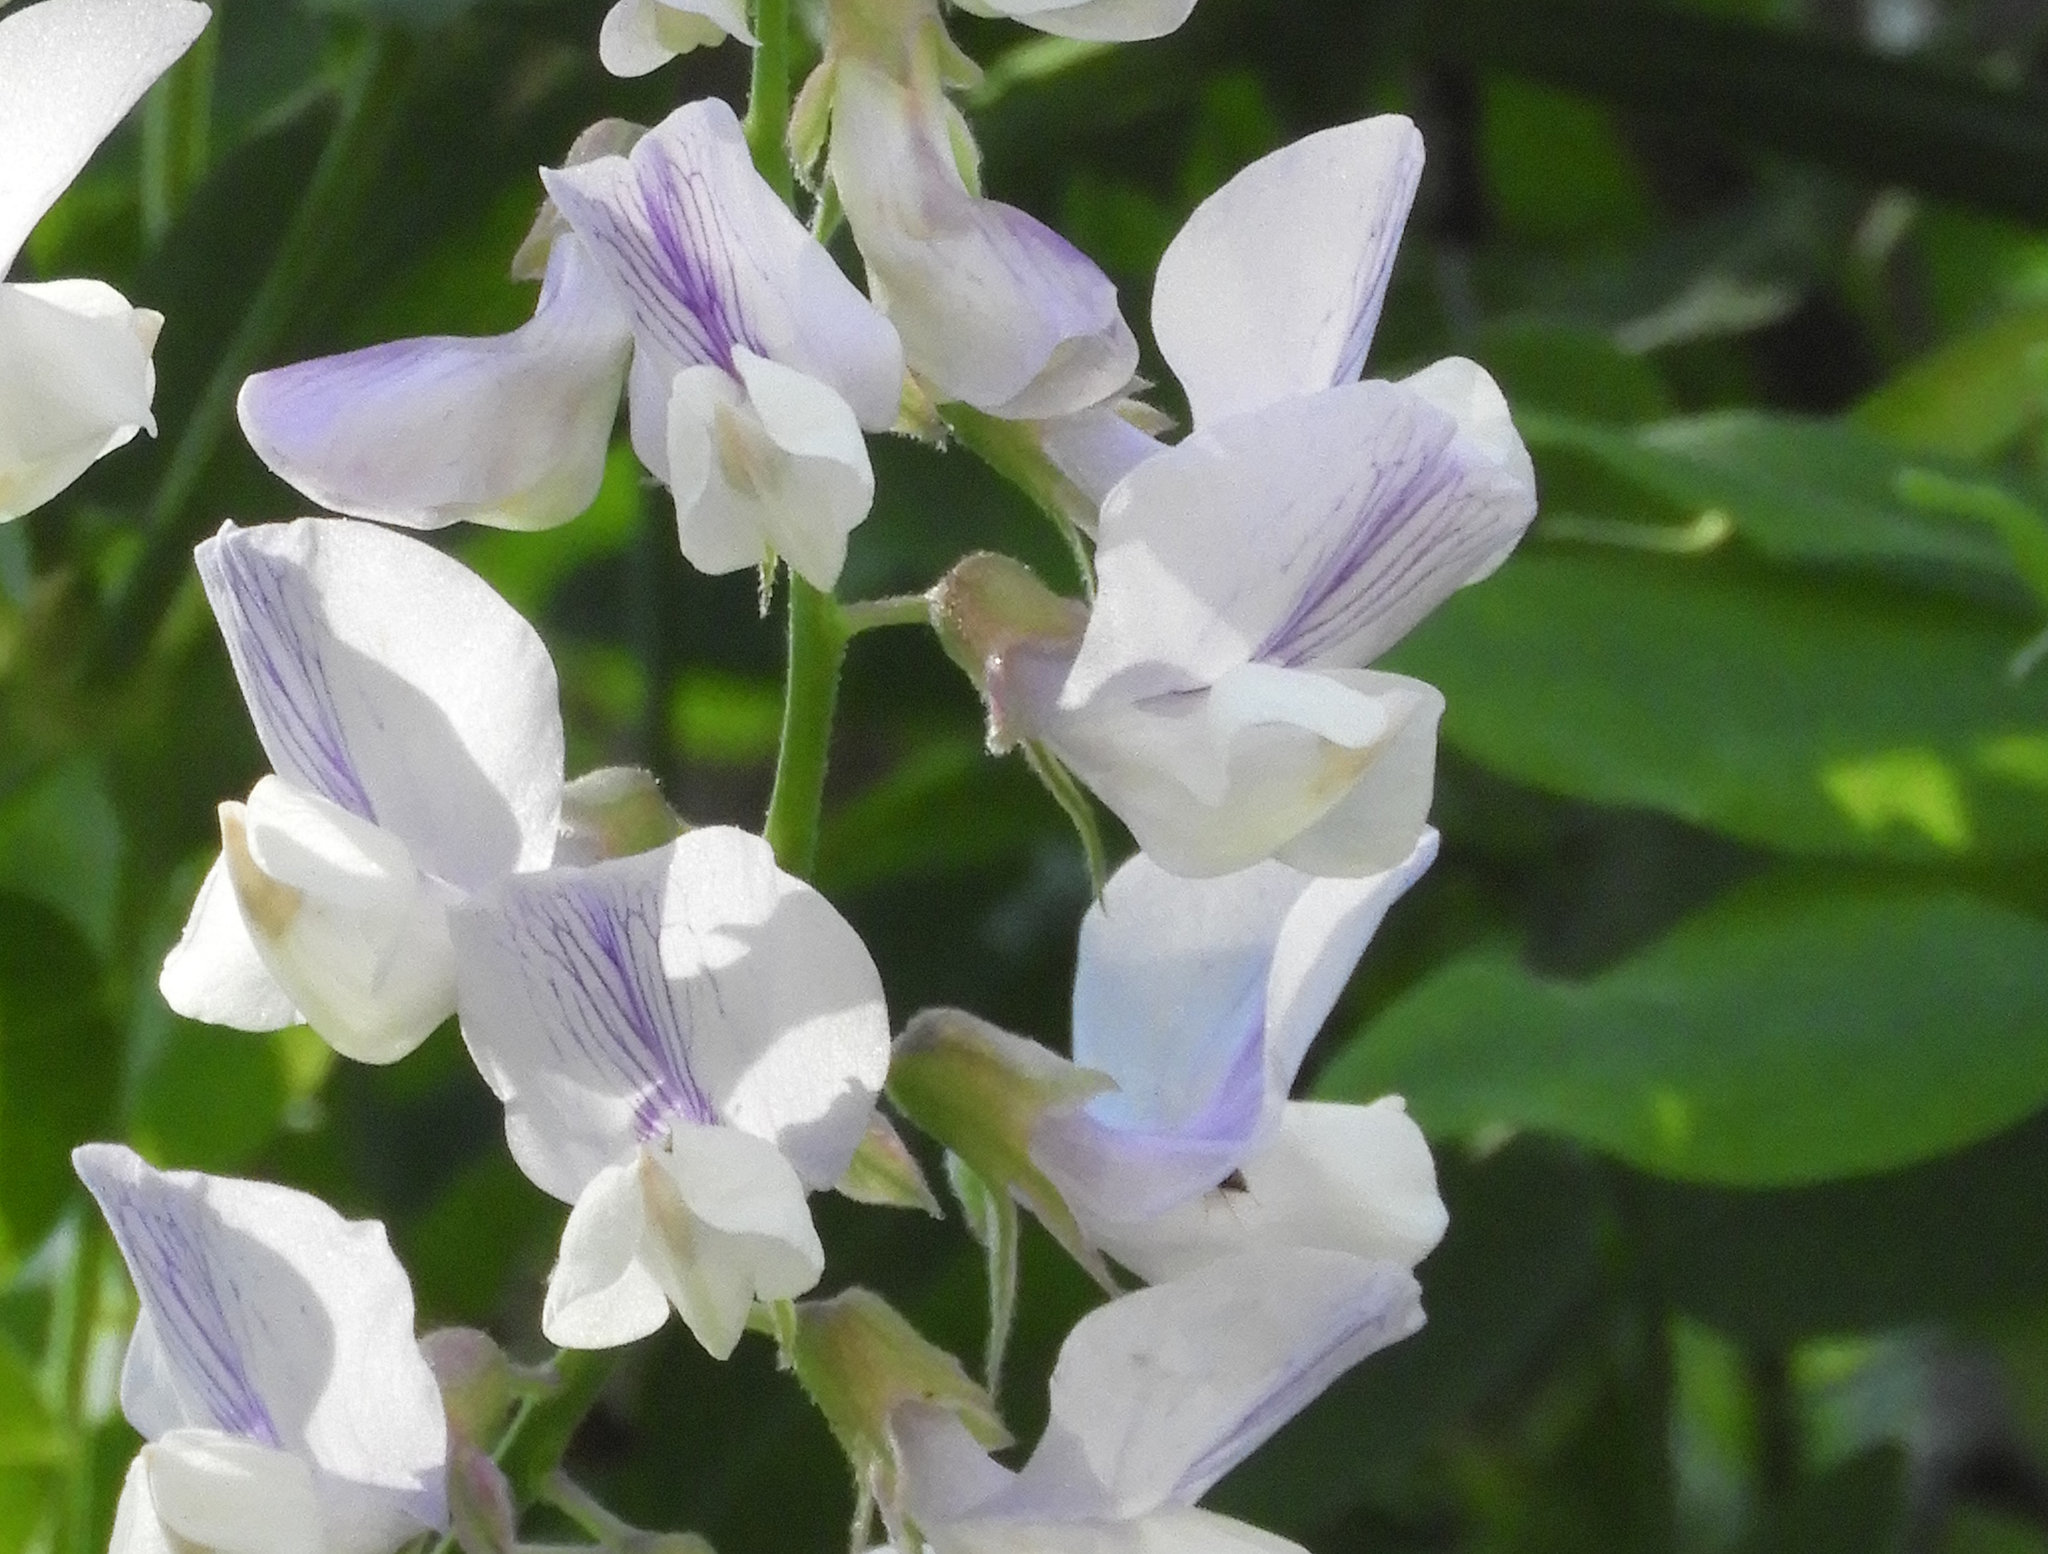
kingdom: Plantae
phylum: Tracheophyta
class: Magnoliopsida
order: Fabales
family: Fabaceae
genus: Lathyrus
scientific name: Lathyrus vestitus
